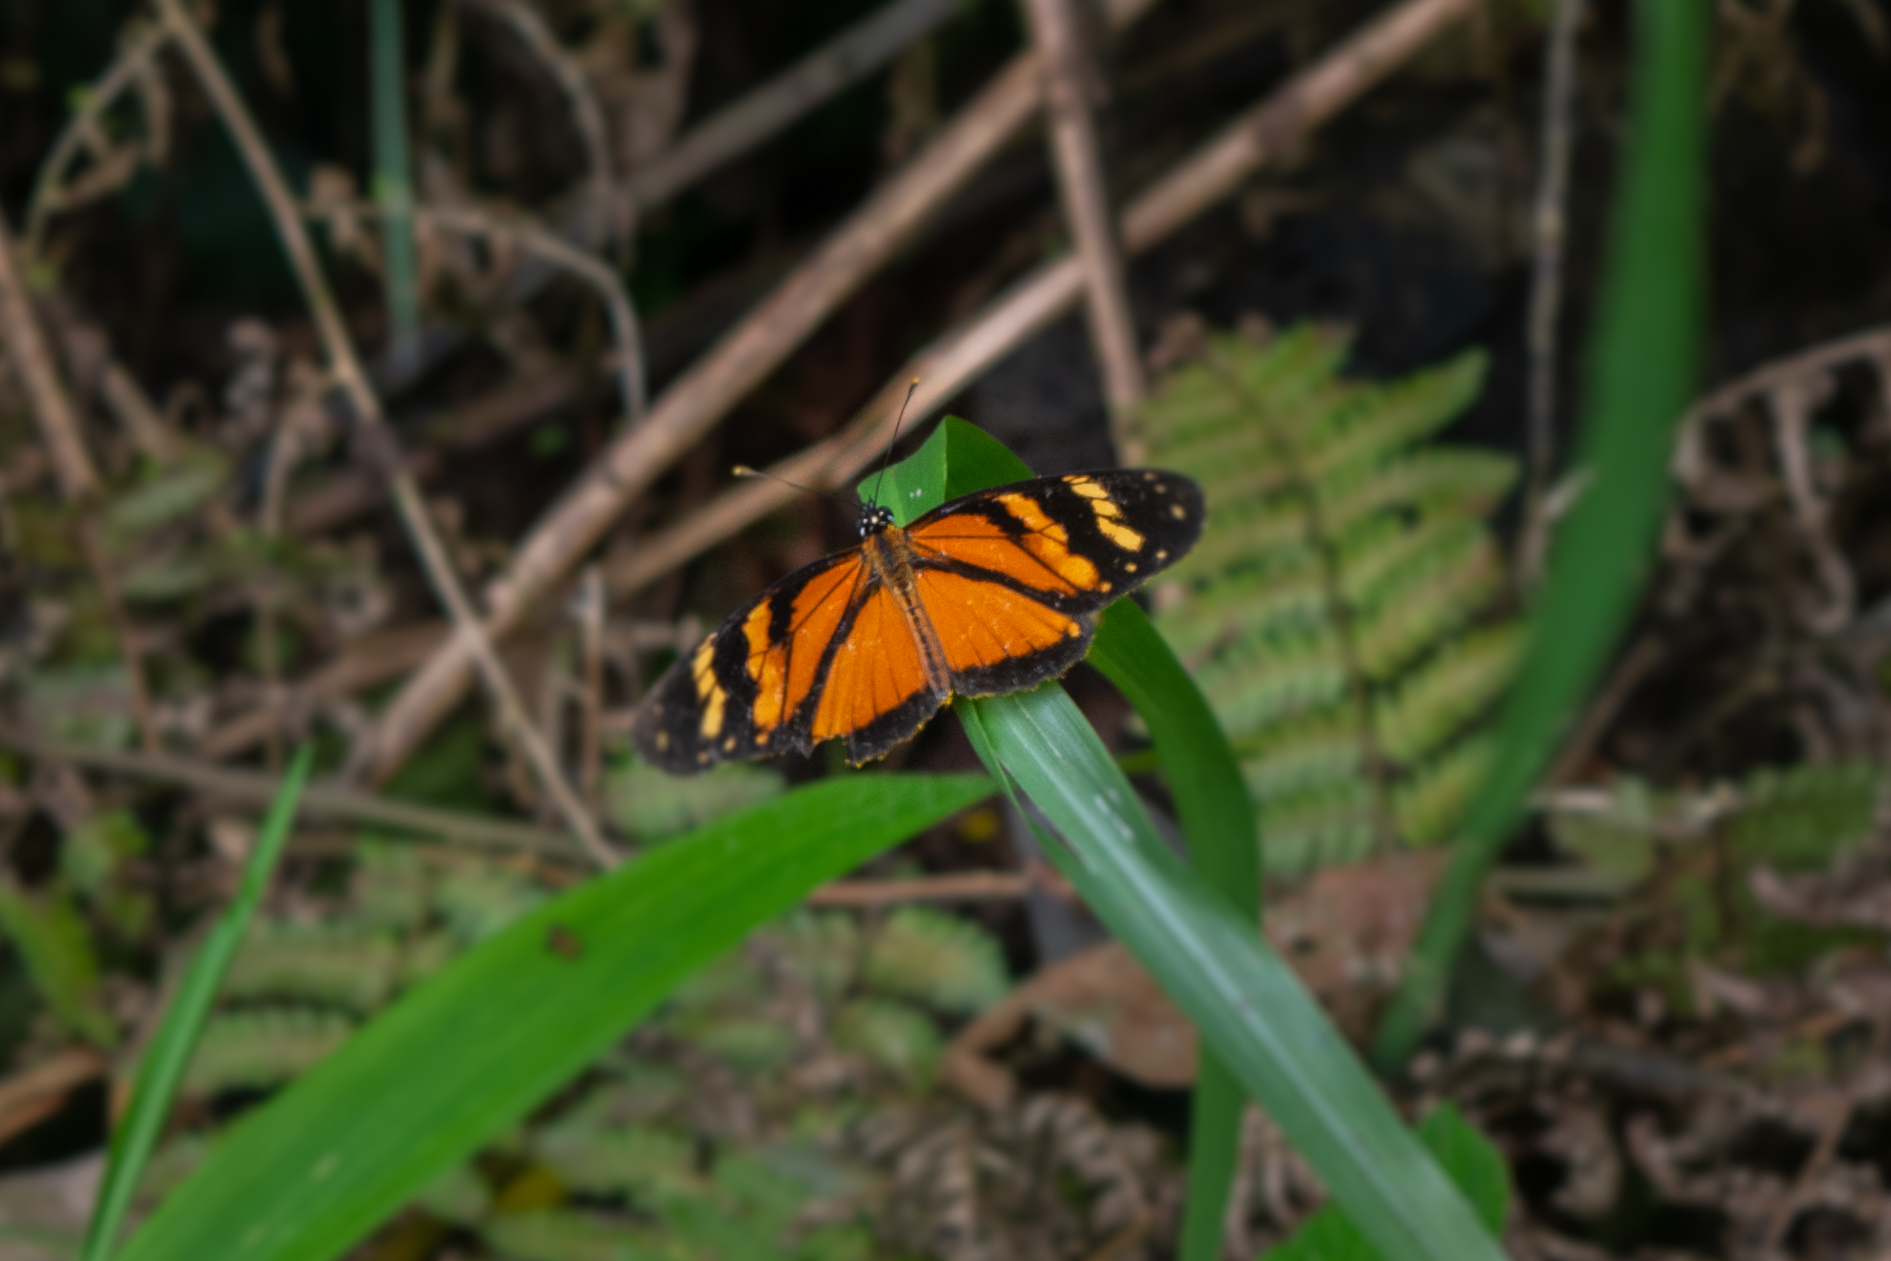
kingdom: Animalia
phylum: Arthropoda
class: Insecta
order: Lepidoptera
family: Nymphalidae
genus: Eresia
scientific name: Eresia ithomioides
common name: Variable crescent
